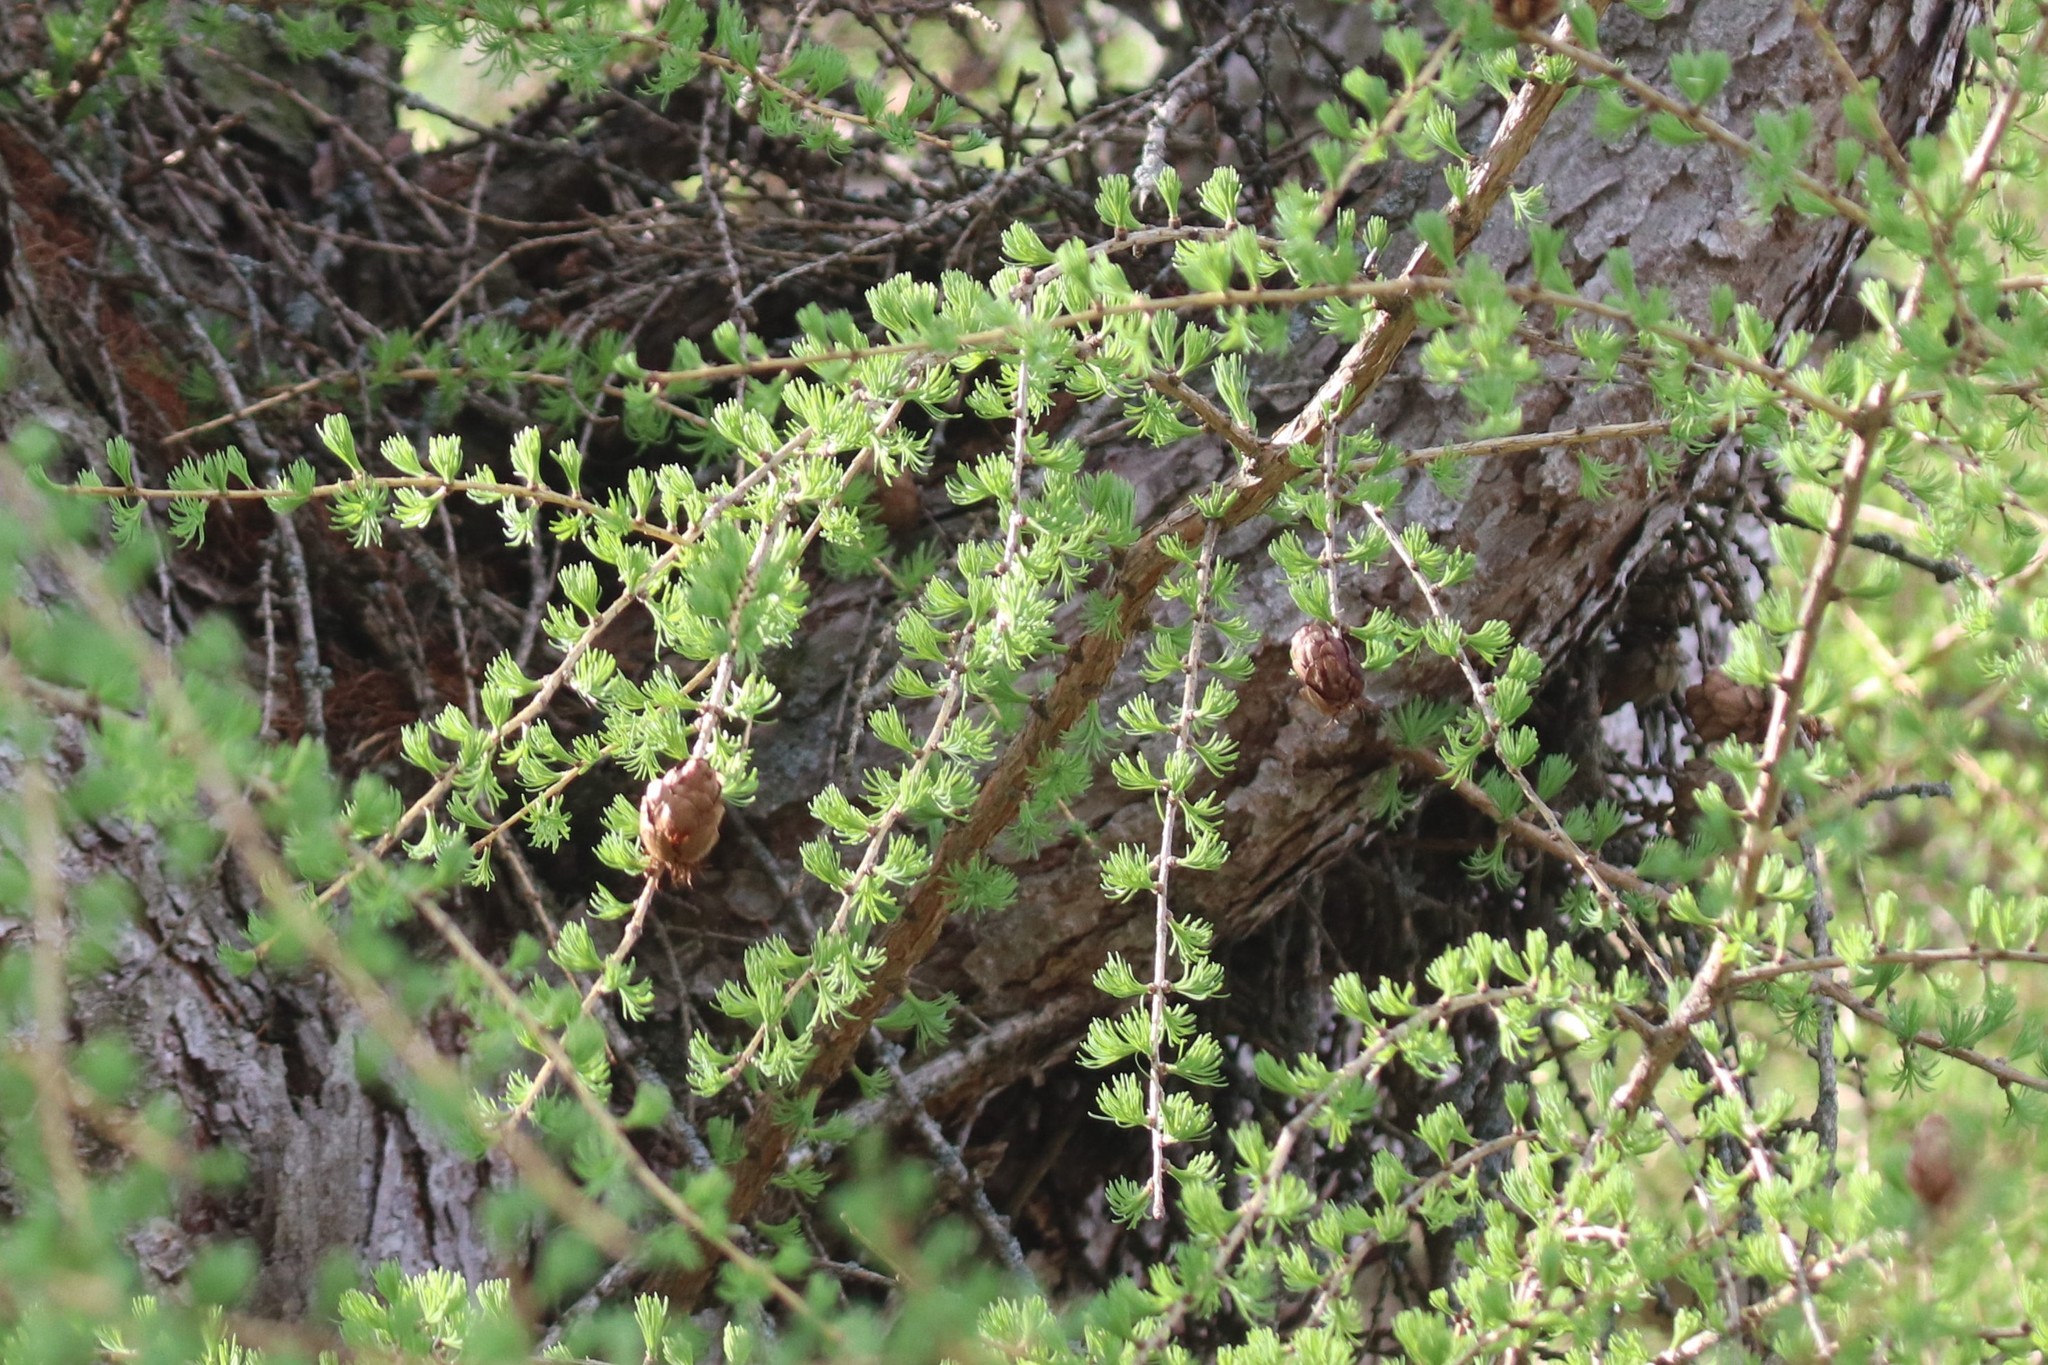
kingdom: Plantae
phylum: Tracheophyta
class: Pinopsida
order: Pinales
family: Pinaceae
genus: Larix
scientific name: Larix decidua
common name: European larch
